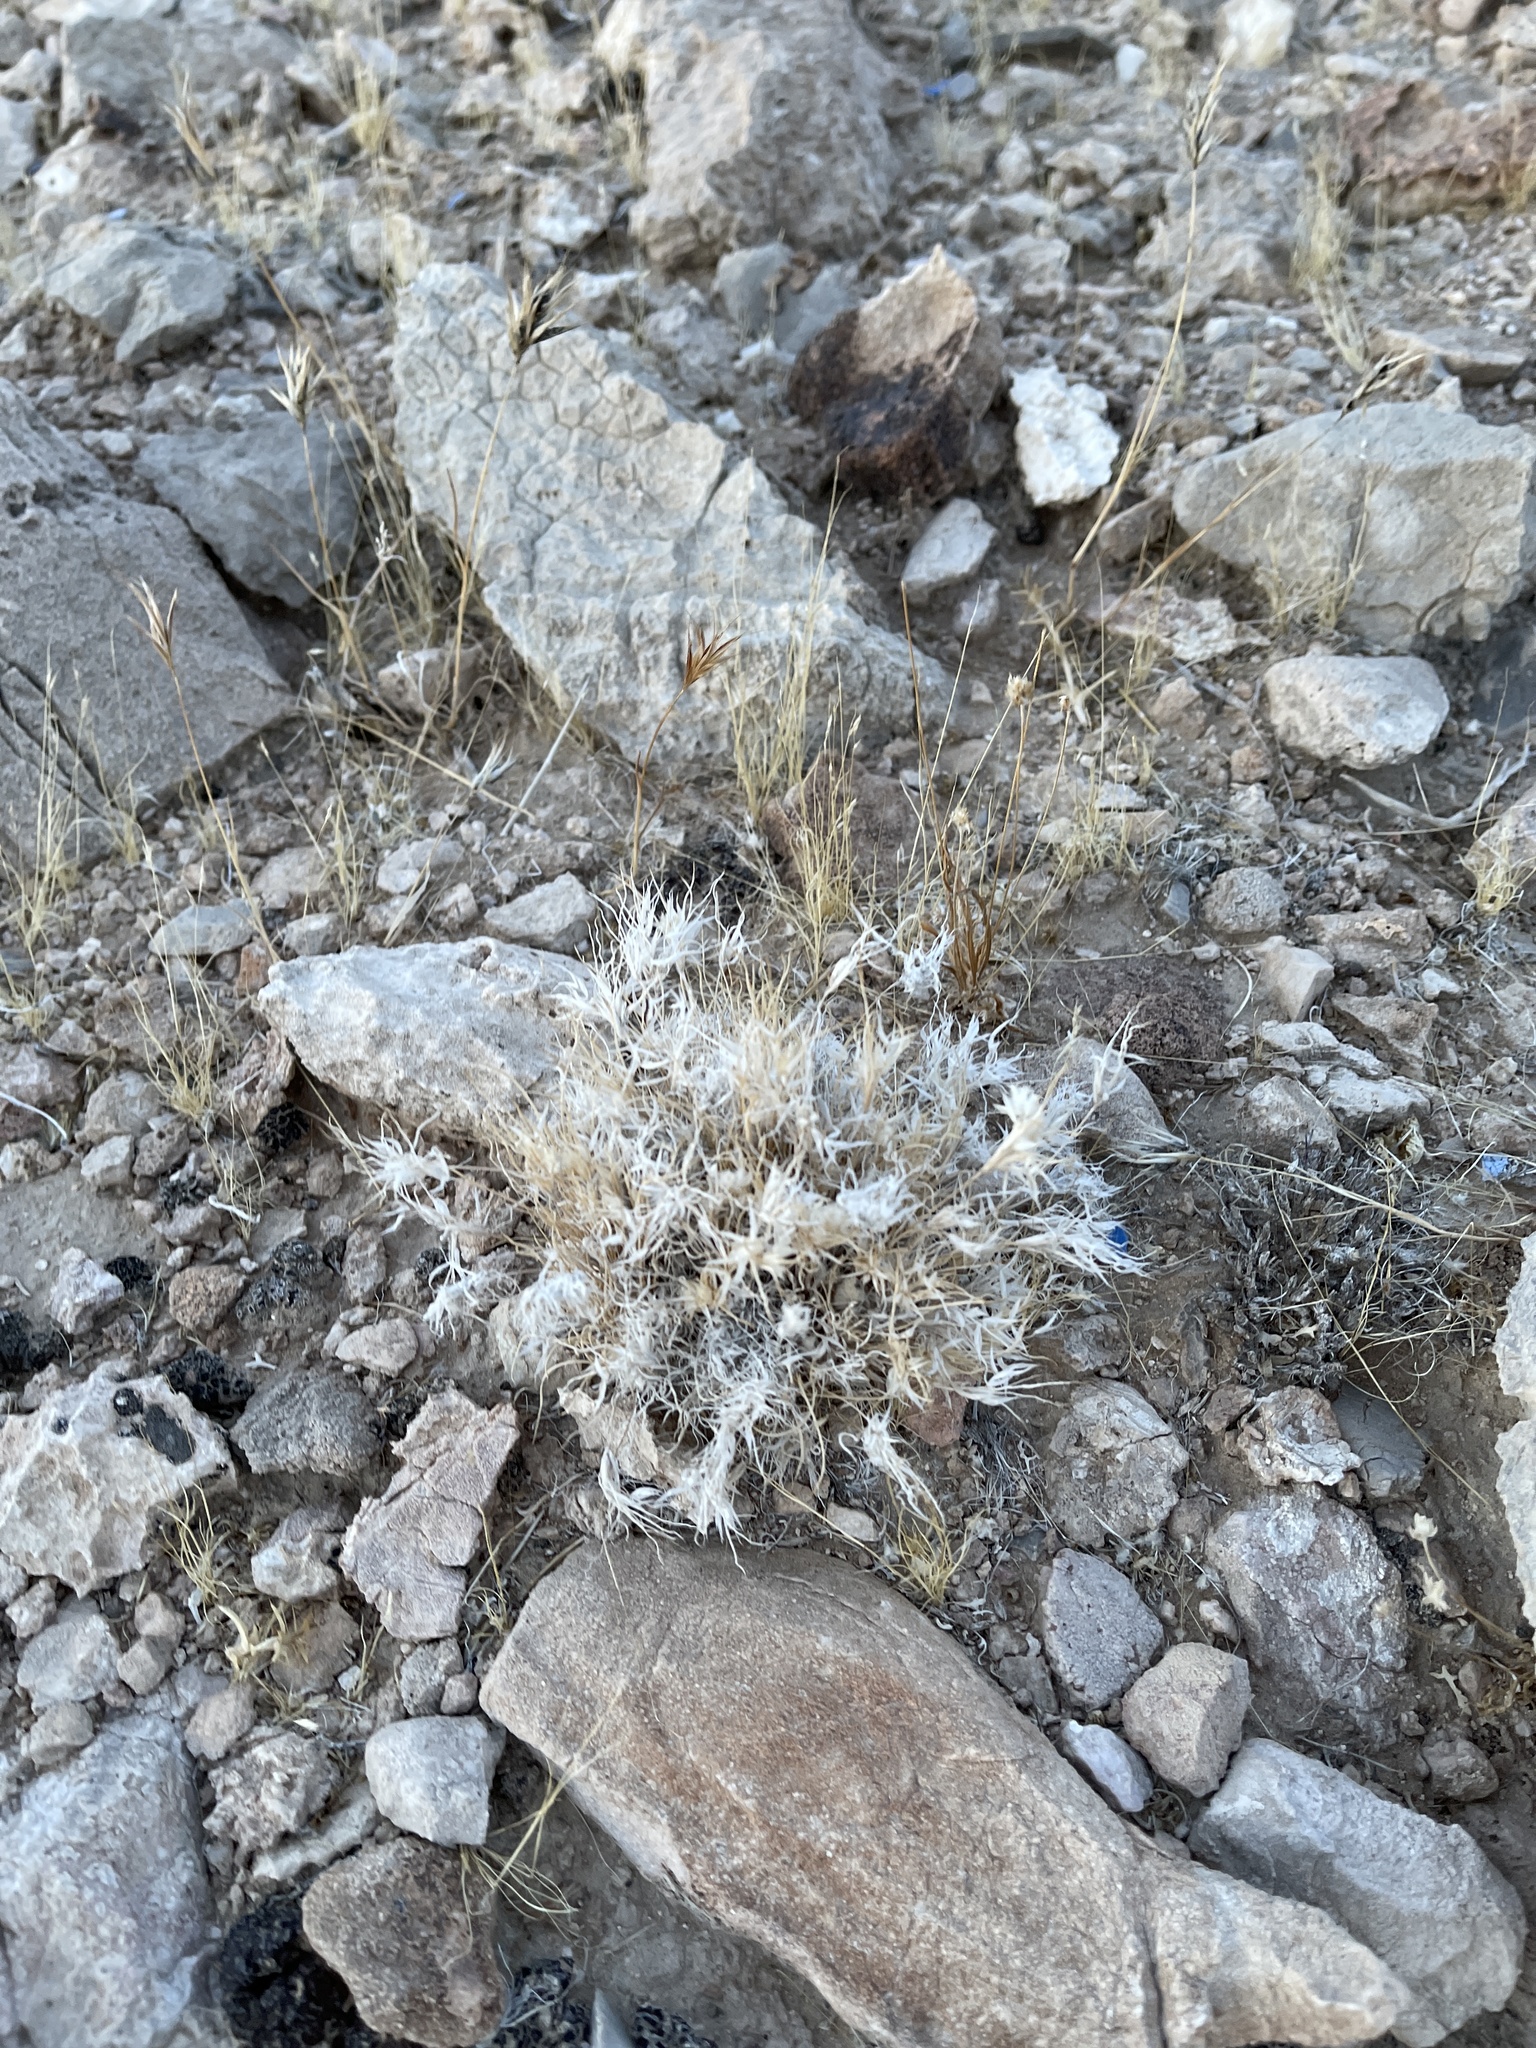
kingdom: Plantae
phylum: Tracheophyta
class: Liliopsida
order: Poales
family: Poaceae
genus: Dasyochloa
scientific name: Dasyochloa pulchella
